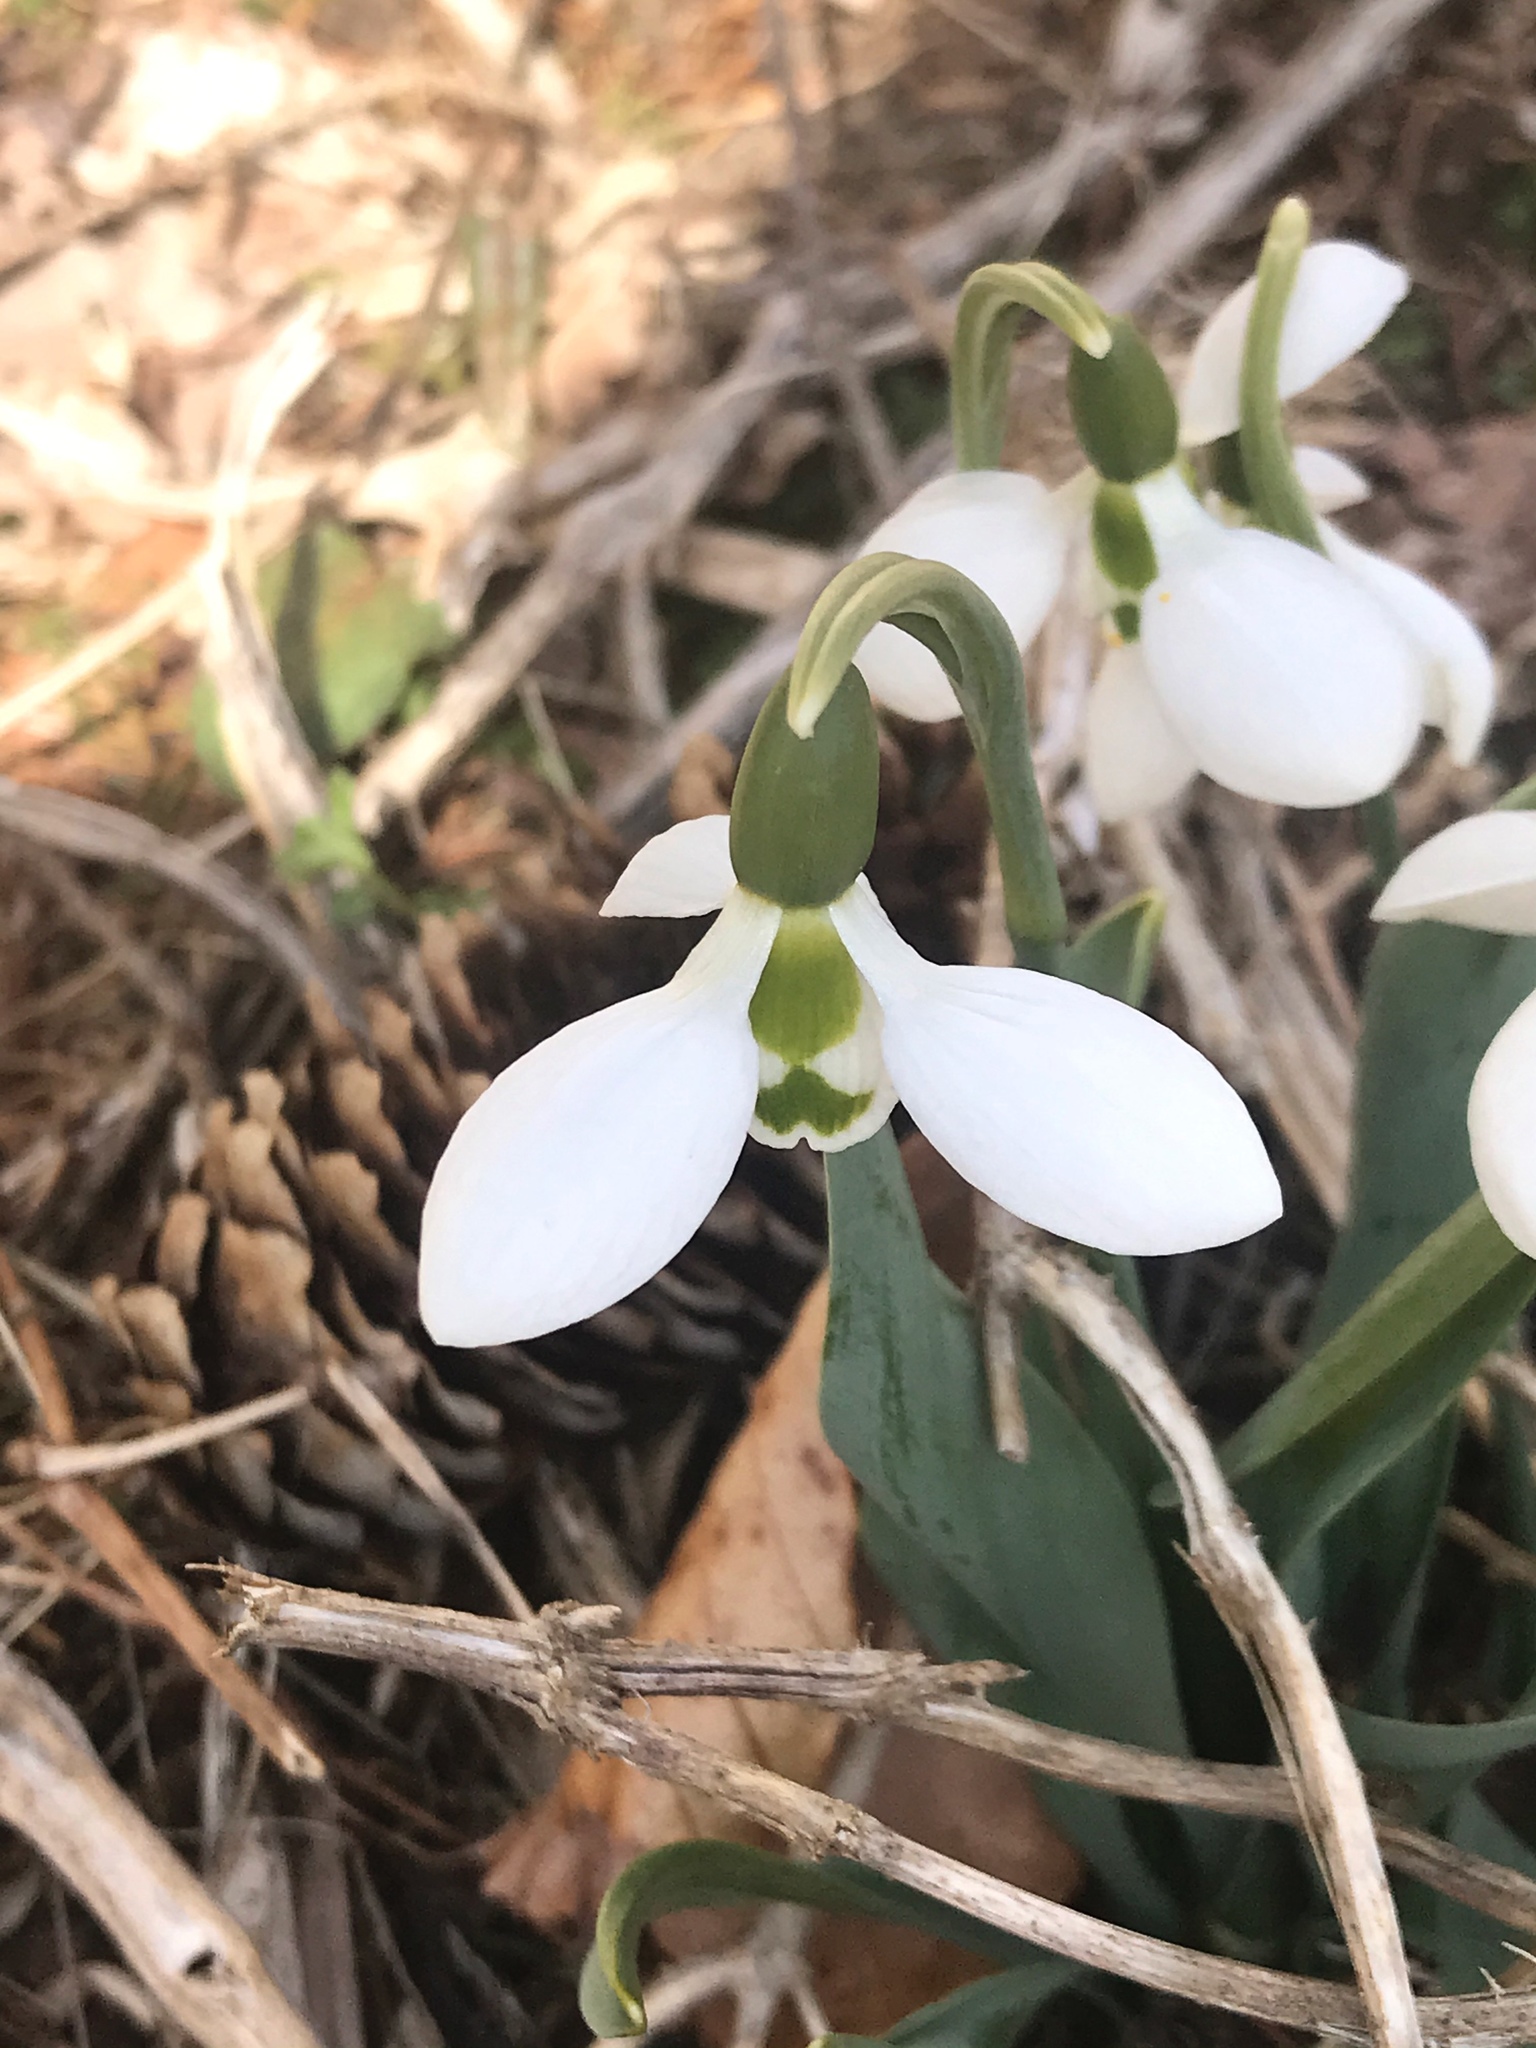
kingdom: Plantae
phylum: Tracheophyta
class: Liliopsida
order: Asparagales
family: Amaryllidaceae
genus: Galanthus
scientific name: Galanthus elwesii
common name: Greater snowdrop
